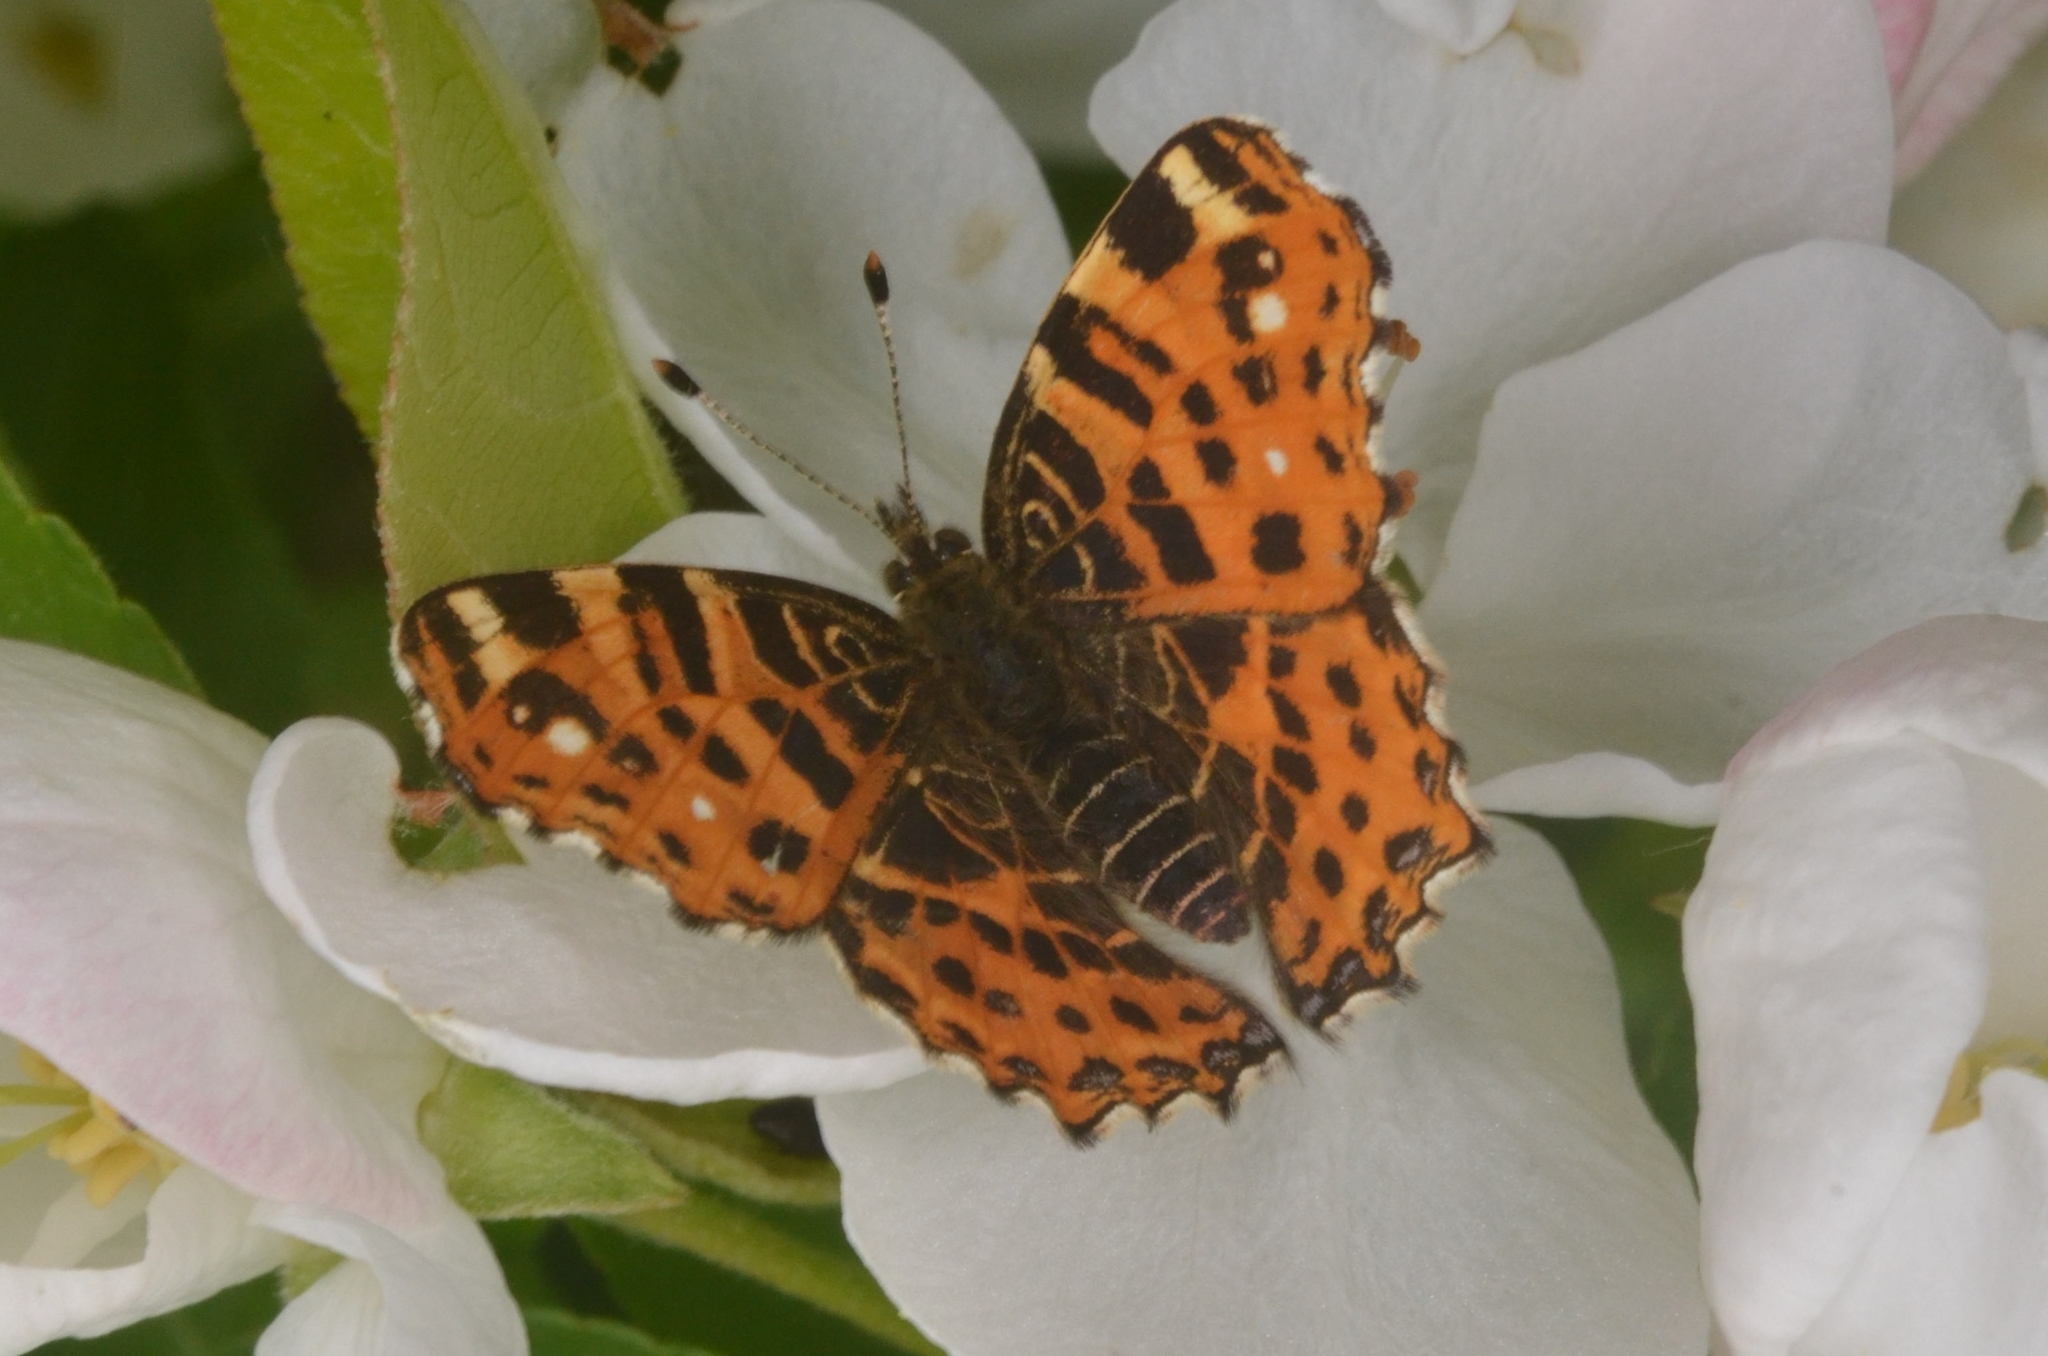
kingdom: Animalia
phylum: Arthropoda
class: Insecta
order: Lepidoptera
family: Nymphalidae
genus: Araschnia
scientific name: Araschnia levana
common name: Map butterfly
